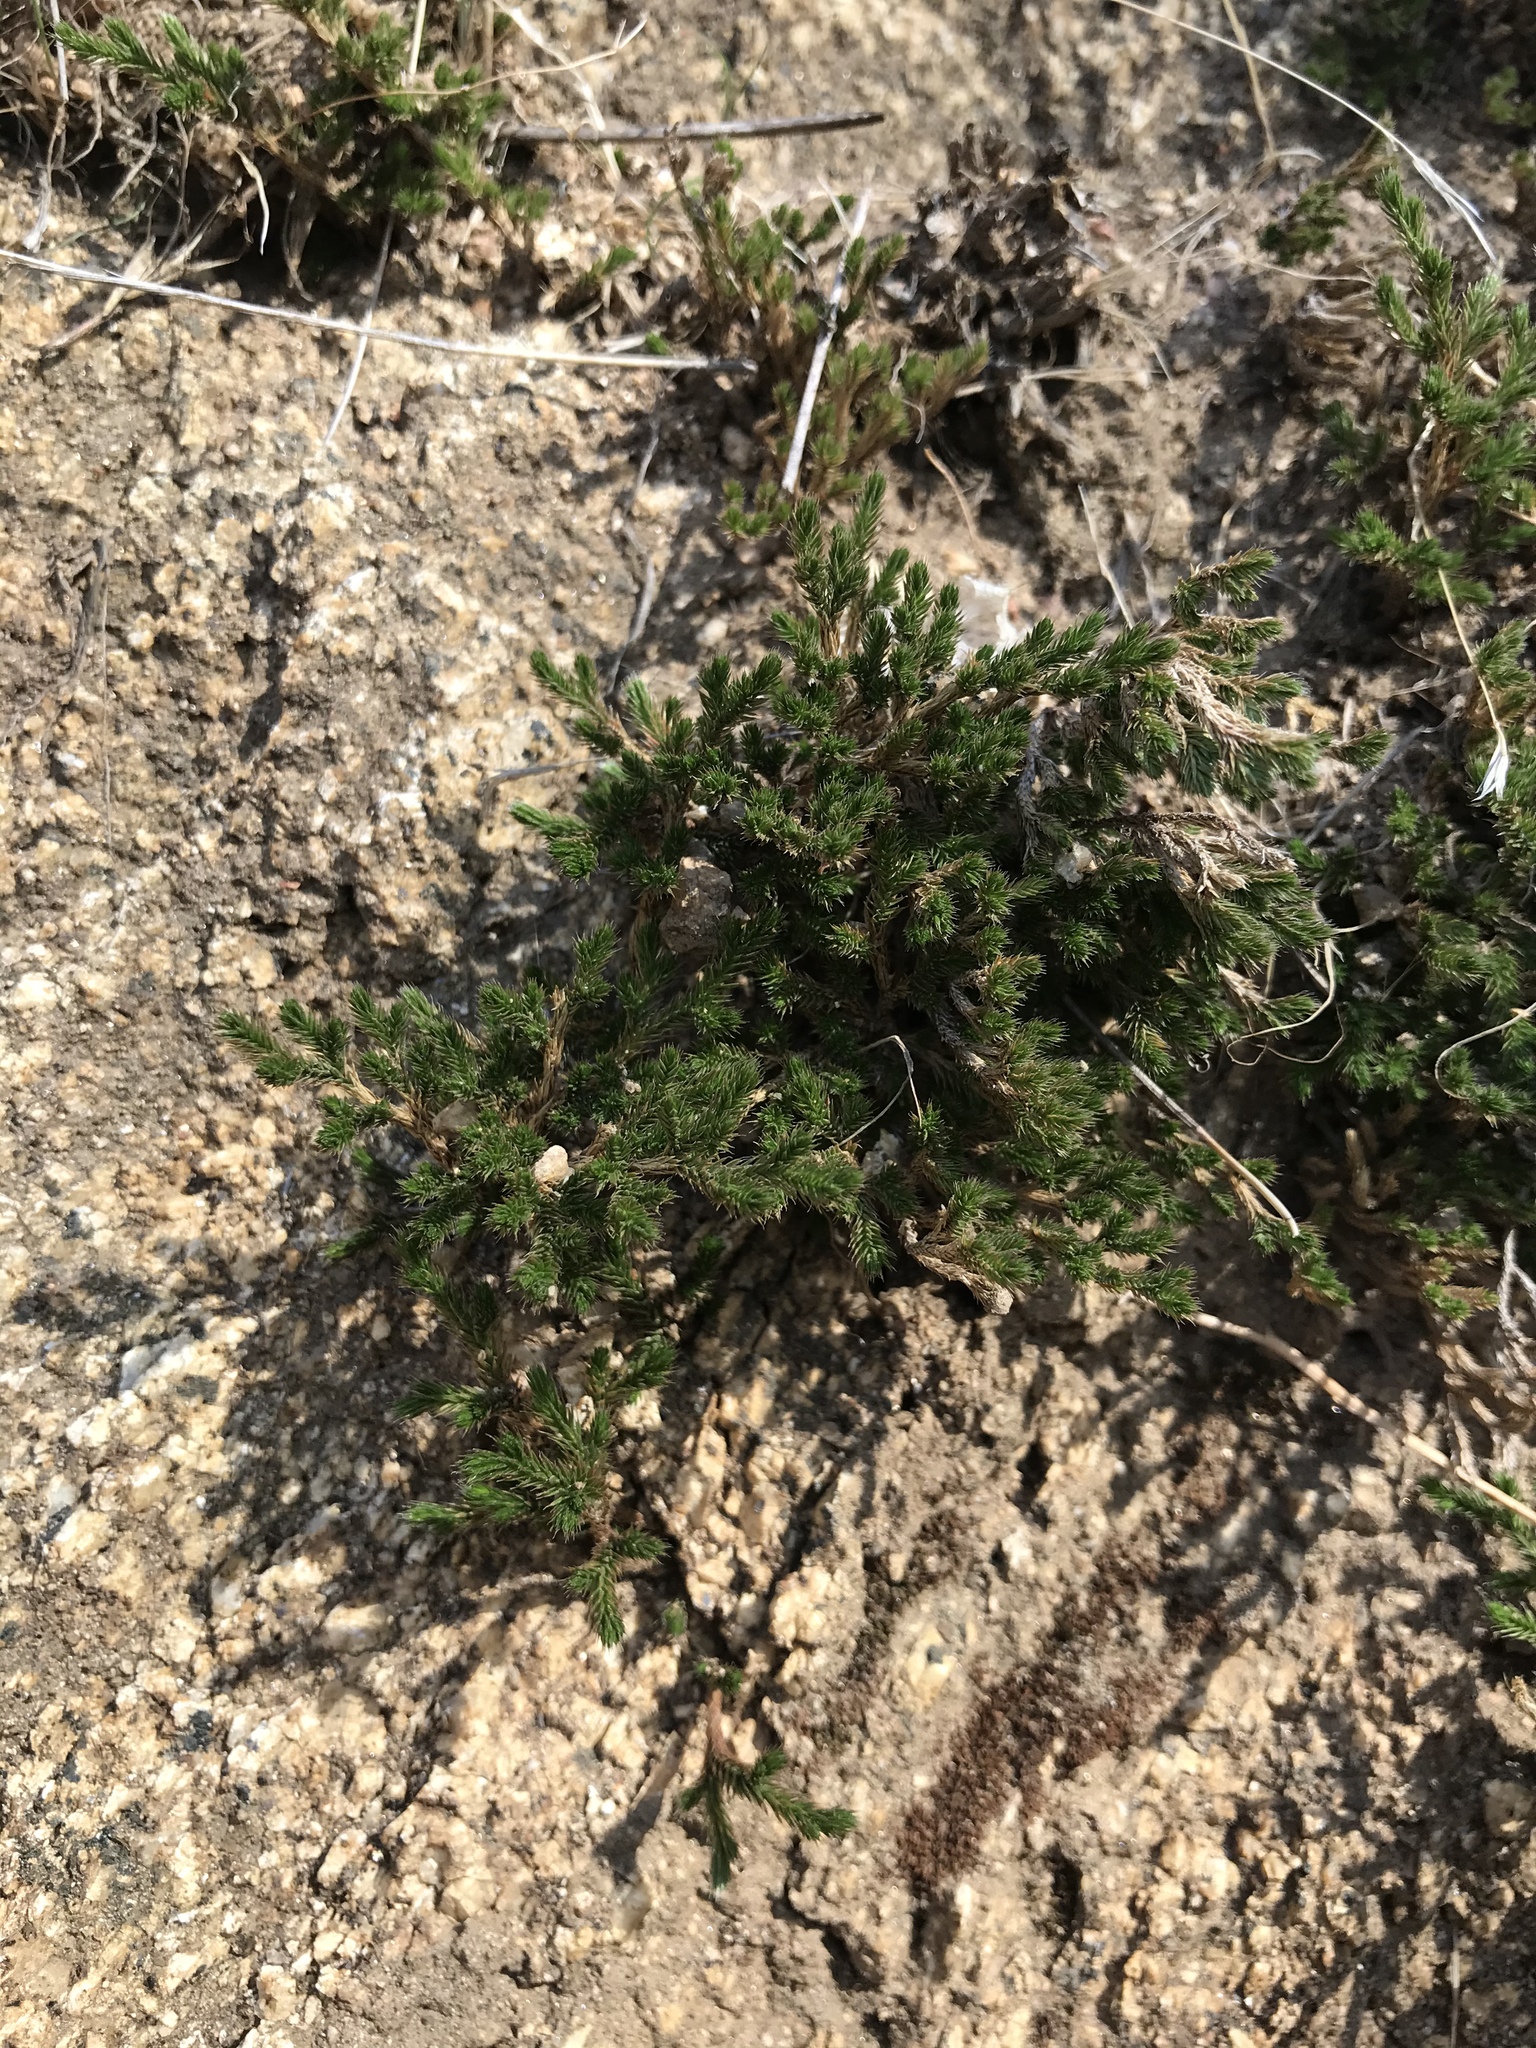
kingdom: Plantae
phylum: Tracheophyta
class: Lycopodiopsida
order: Selaginellales
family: Selaginellaceae
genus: Selaginella
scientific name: Selaginella bigelovii
